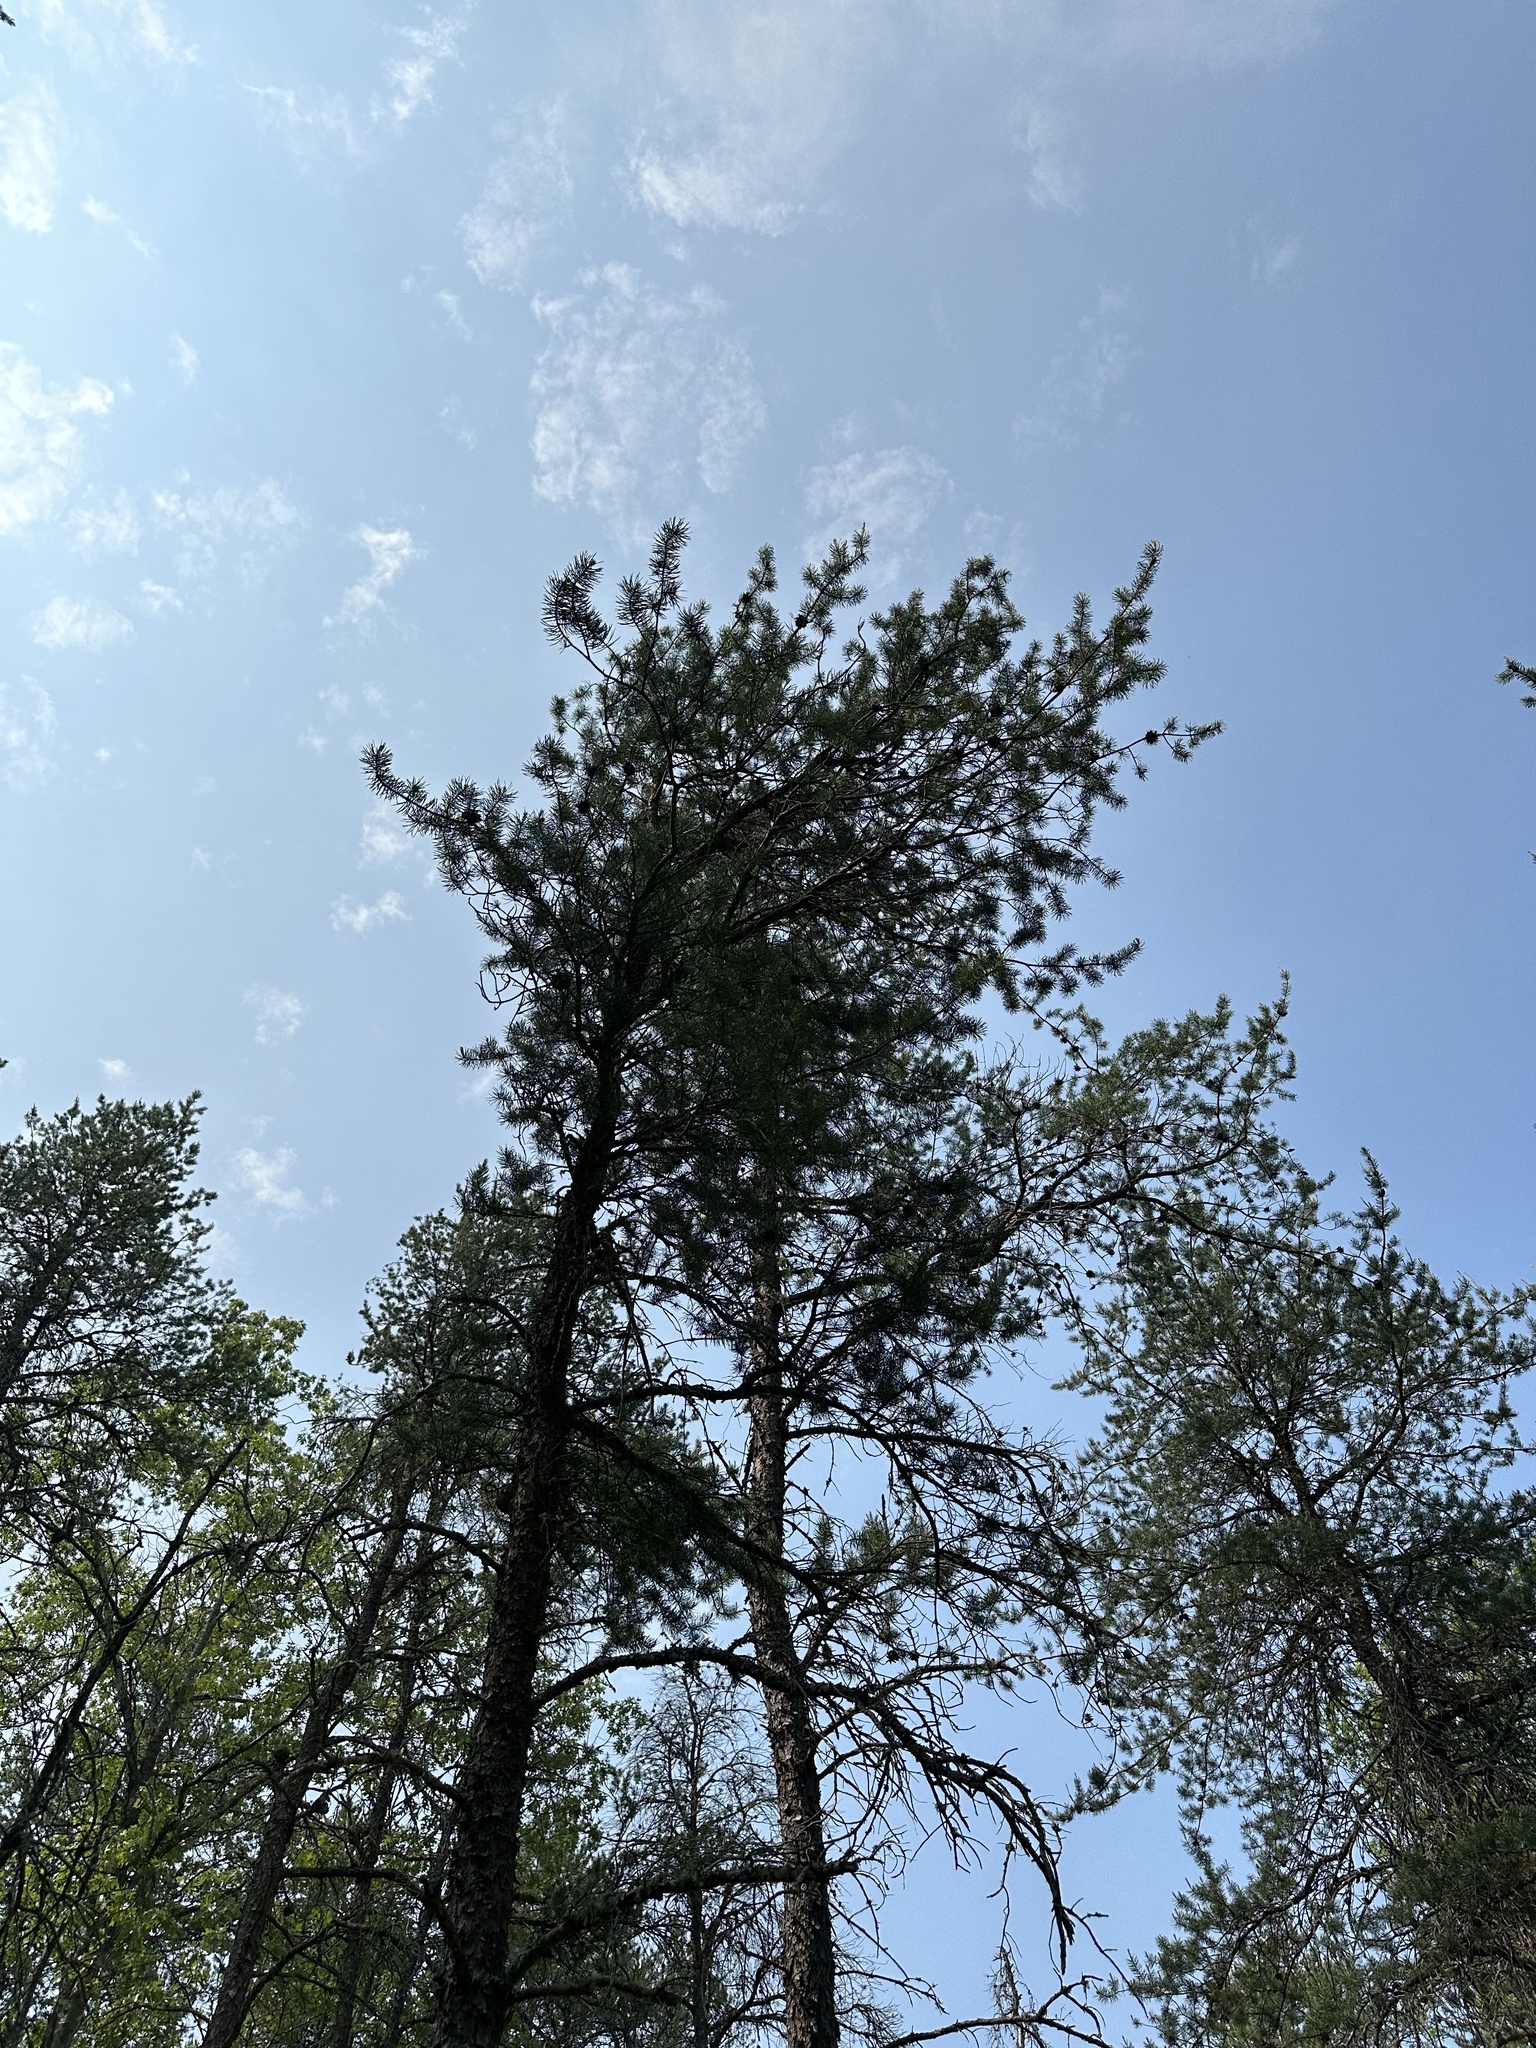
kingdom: Plantae
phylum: Tracheophyta
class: Pinopsida
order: Pinales
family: Pinaceae
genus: Pinus
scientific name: Pinus banksiana
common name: Jack pine
